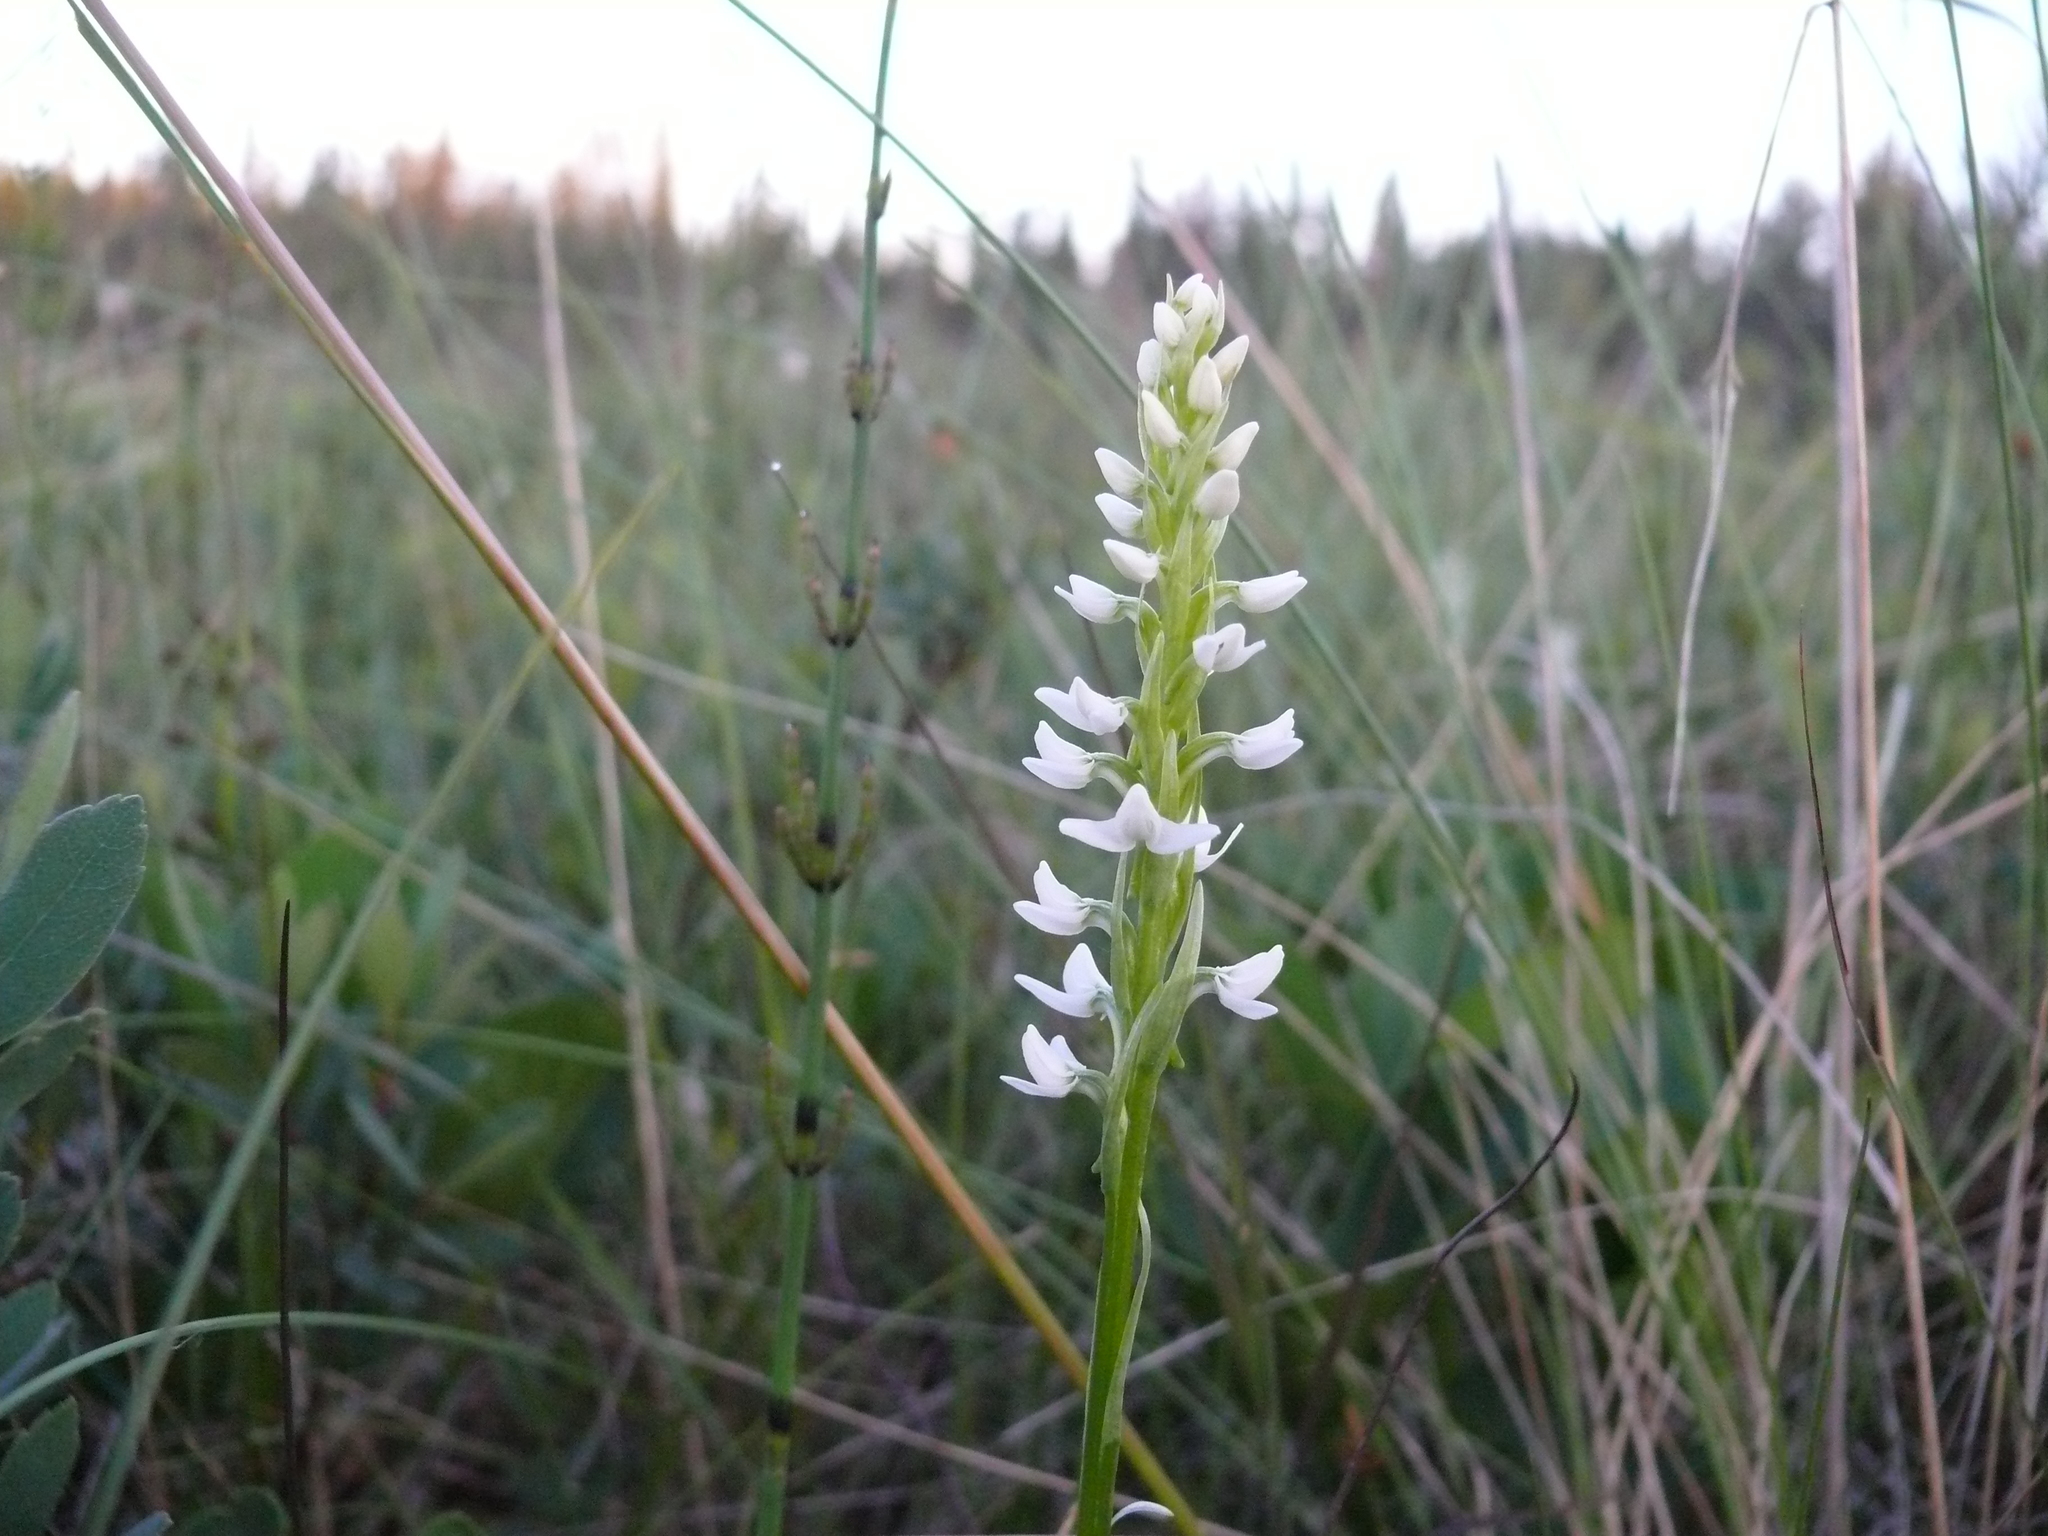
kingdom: Plantae
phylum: Tracheophyta
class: Liliopsida
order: Asparagales
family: Orchidaceae
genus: Platanthera
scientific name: Platanthera dilatata
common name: Bog candles
